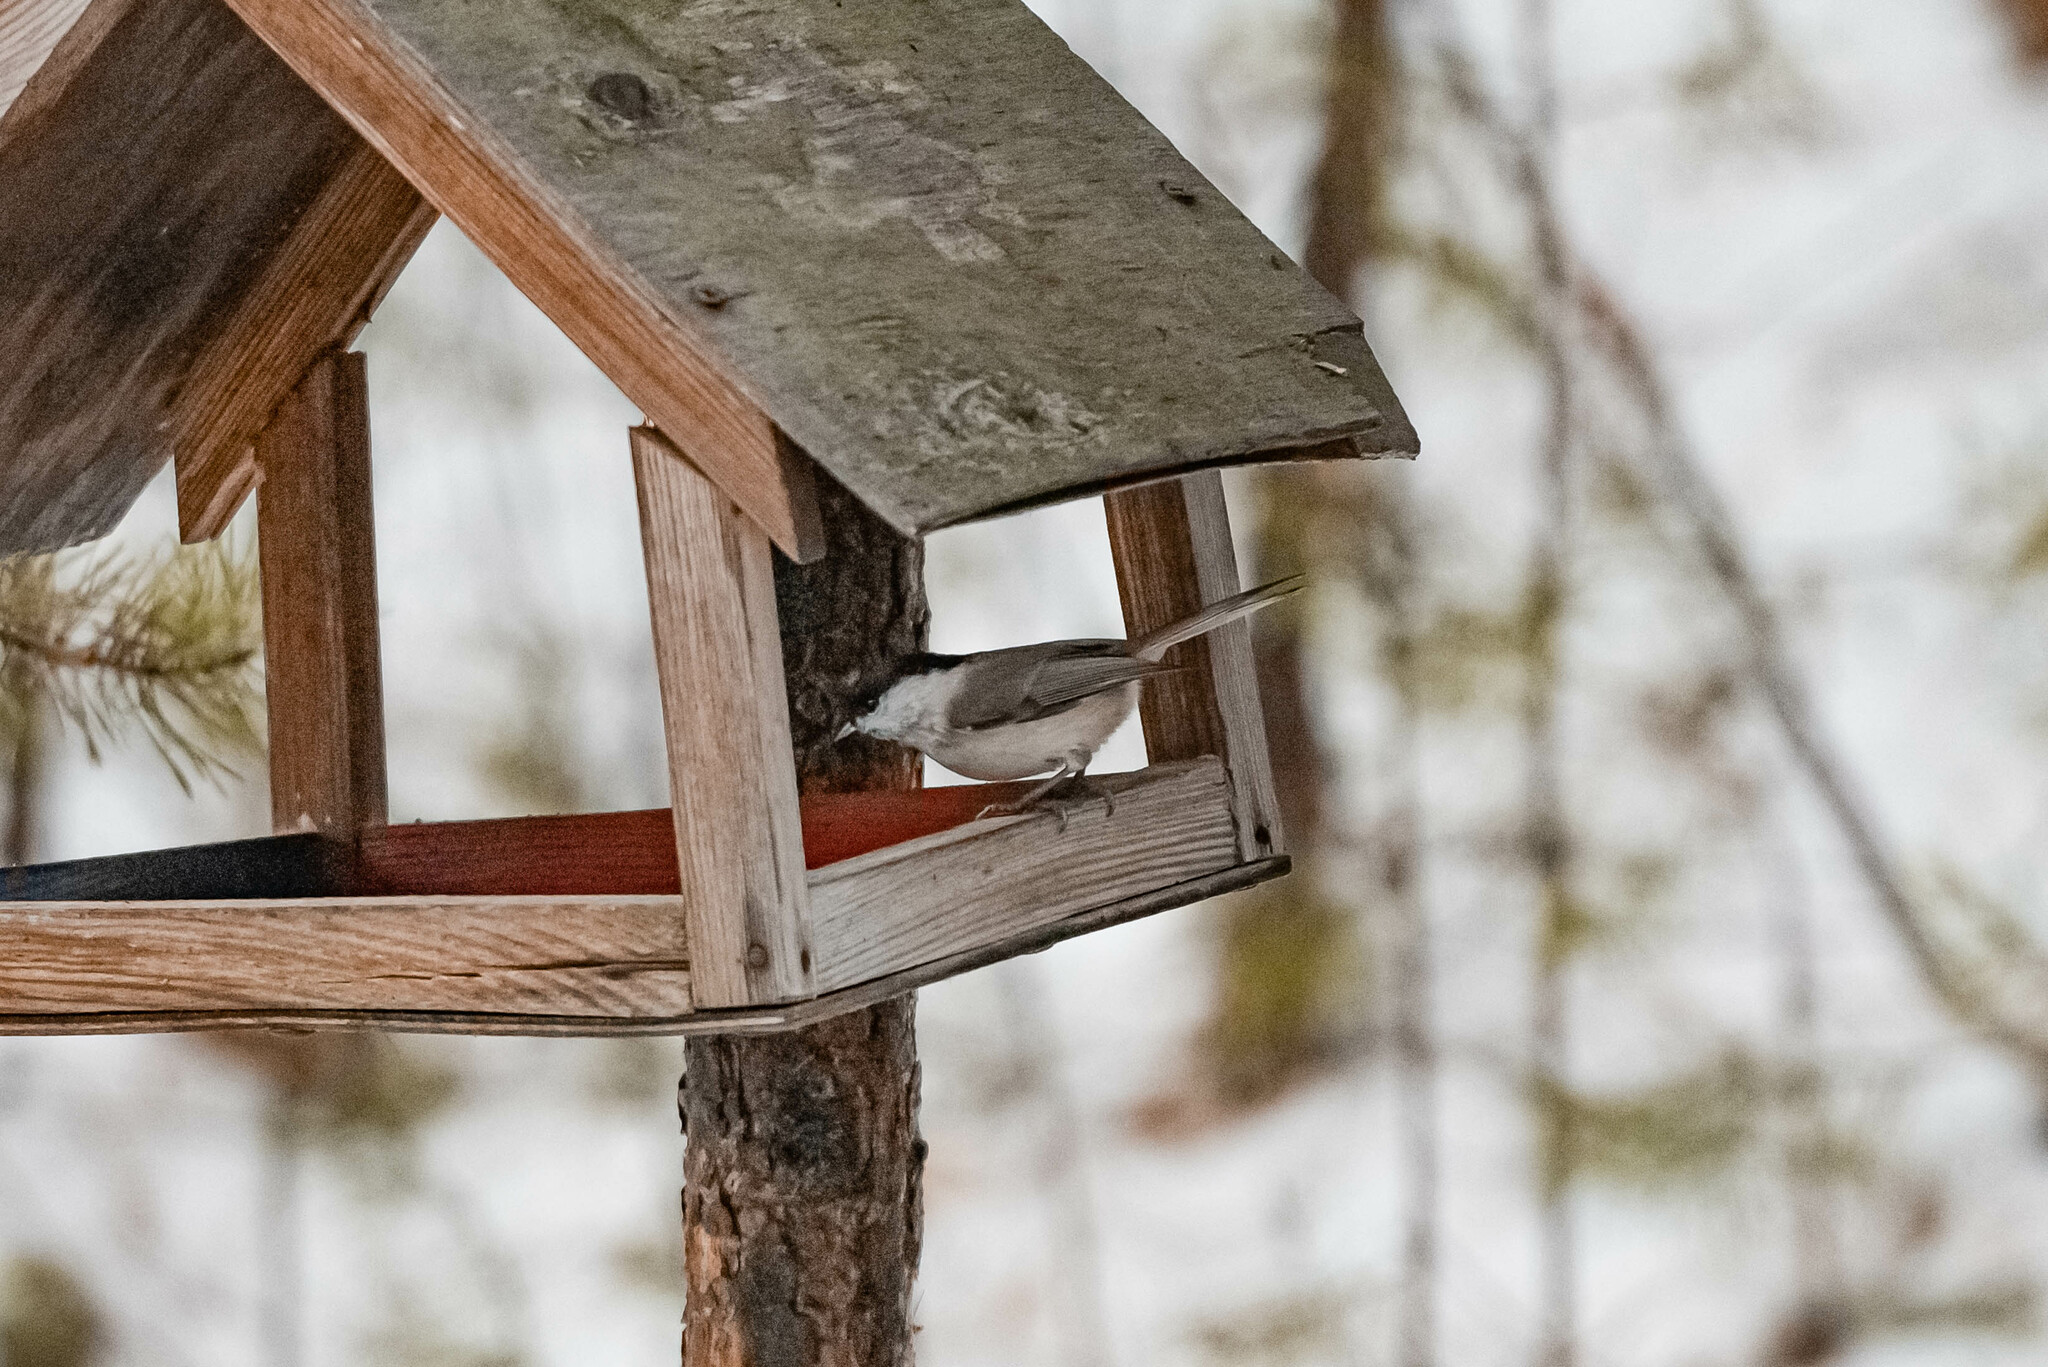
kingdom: Animalia
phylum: Chordata
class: Aves
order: Passeriformes
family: Paridae
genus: Poecile
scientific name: Poecile palustris
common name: Marsh tit
